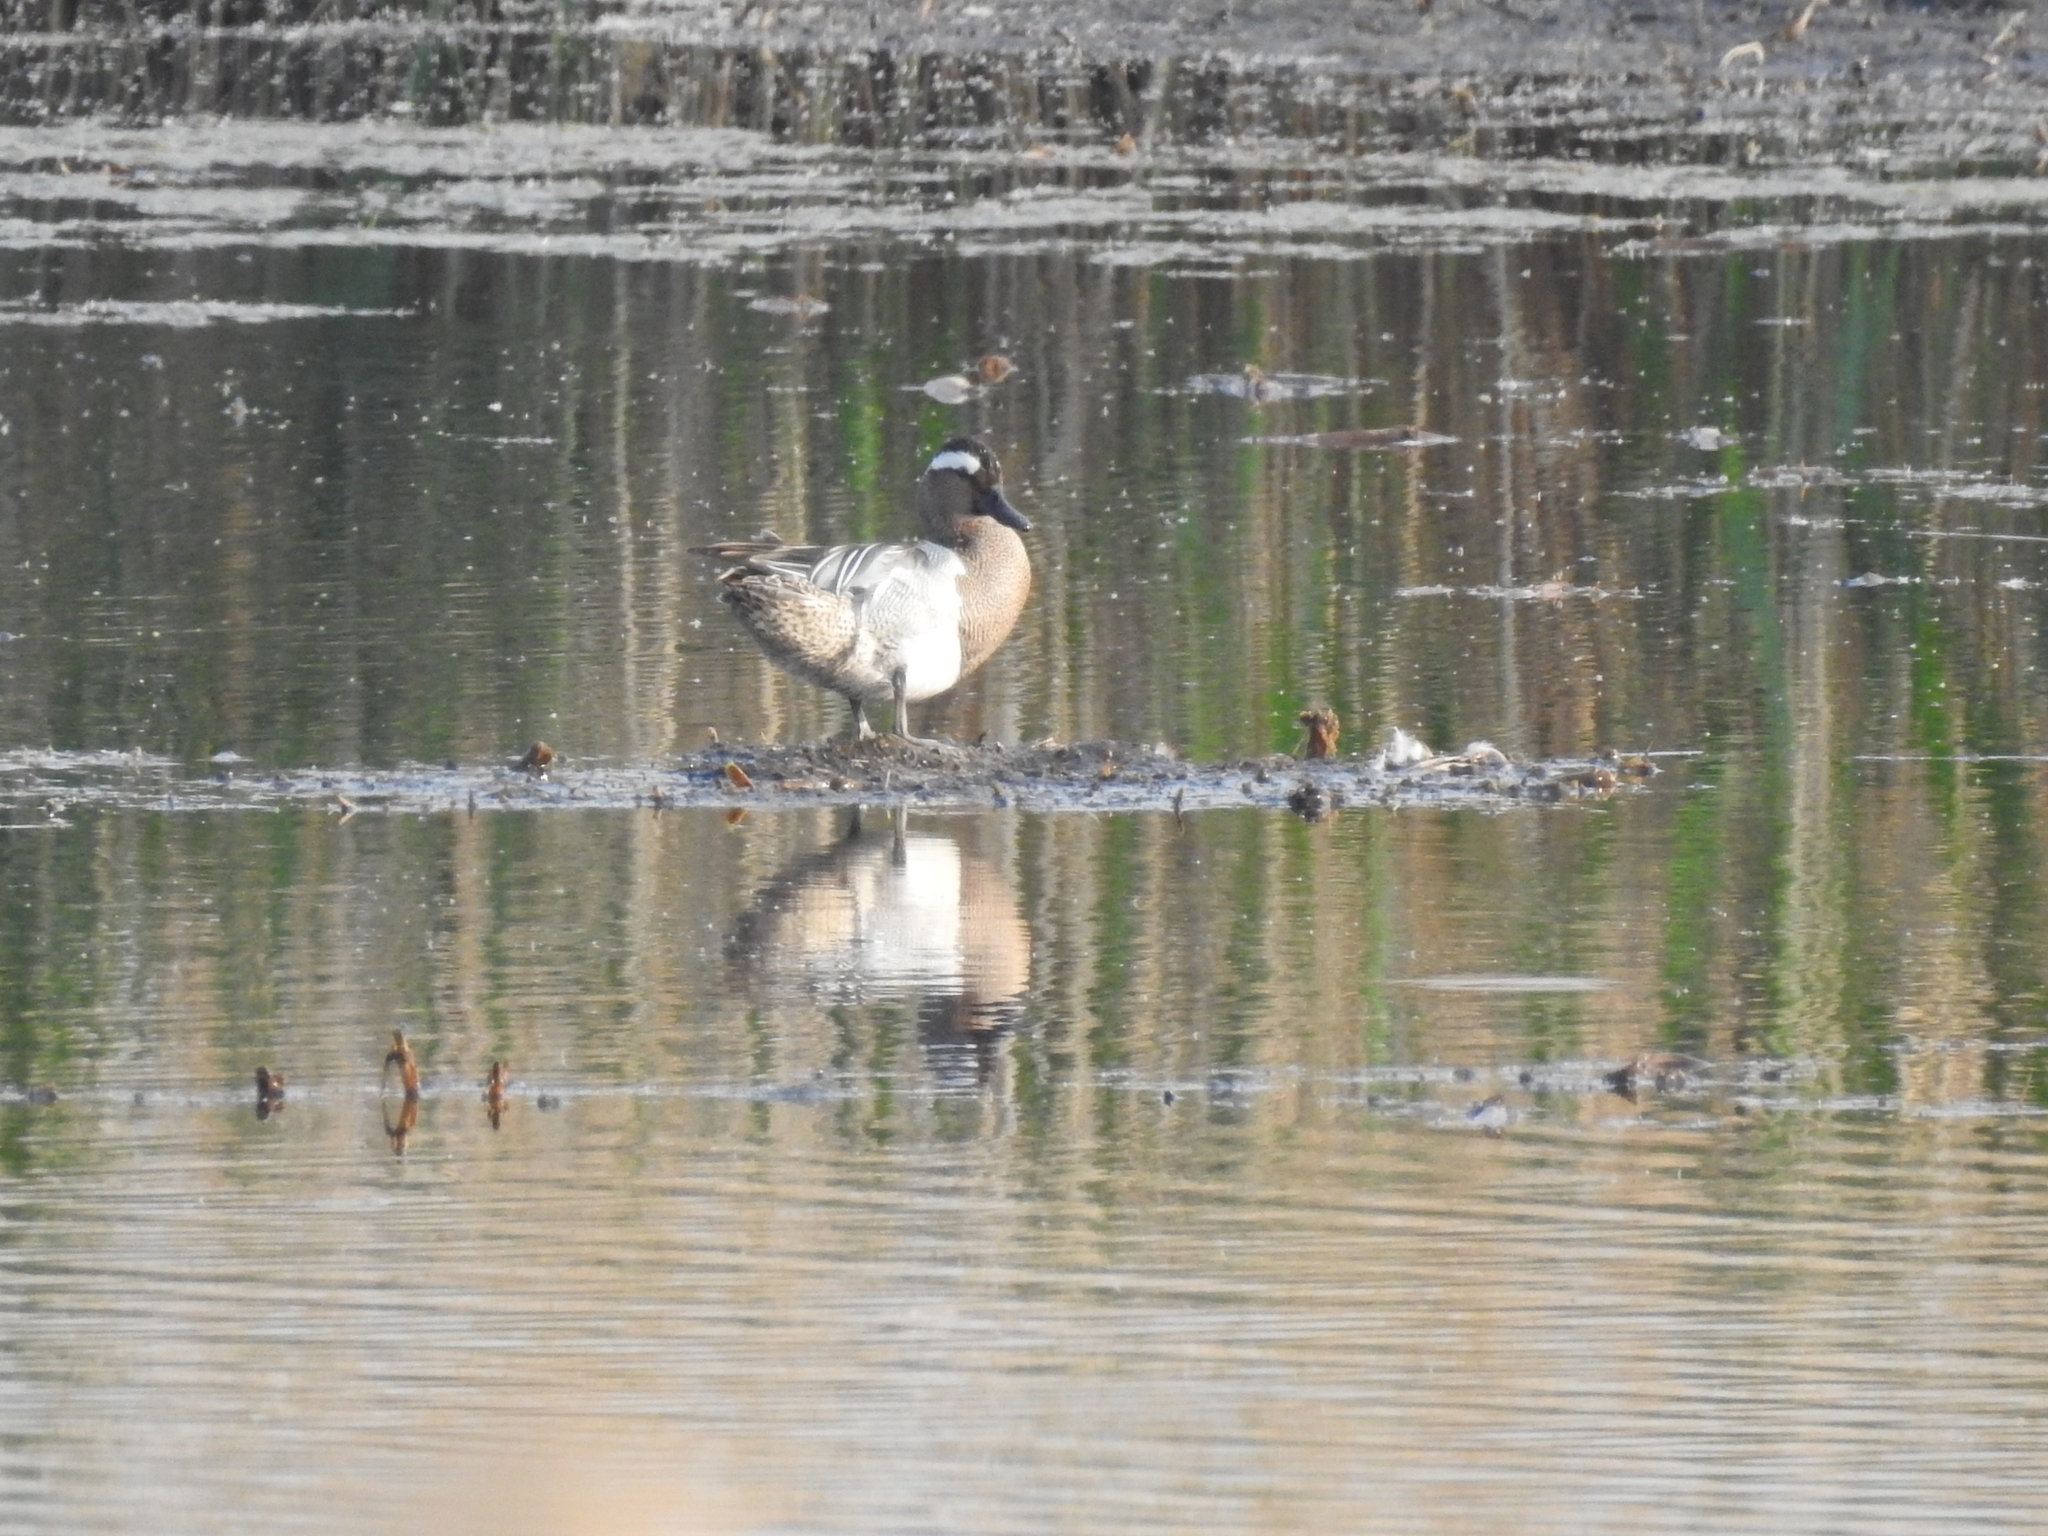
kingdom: Animalia
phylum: Chordata
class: Aves
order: Anseriformes
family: Anatidae
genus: Spatula
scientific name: Spatula querquedula
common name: Garganey
